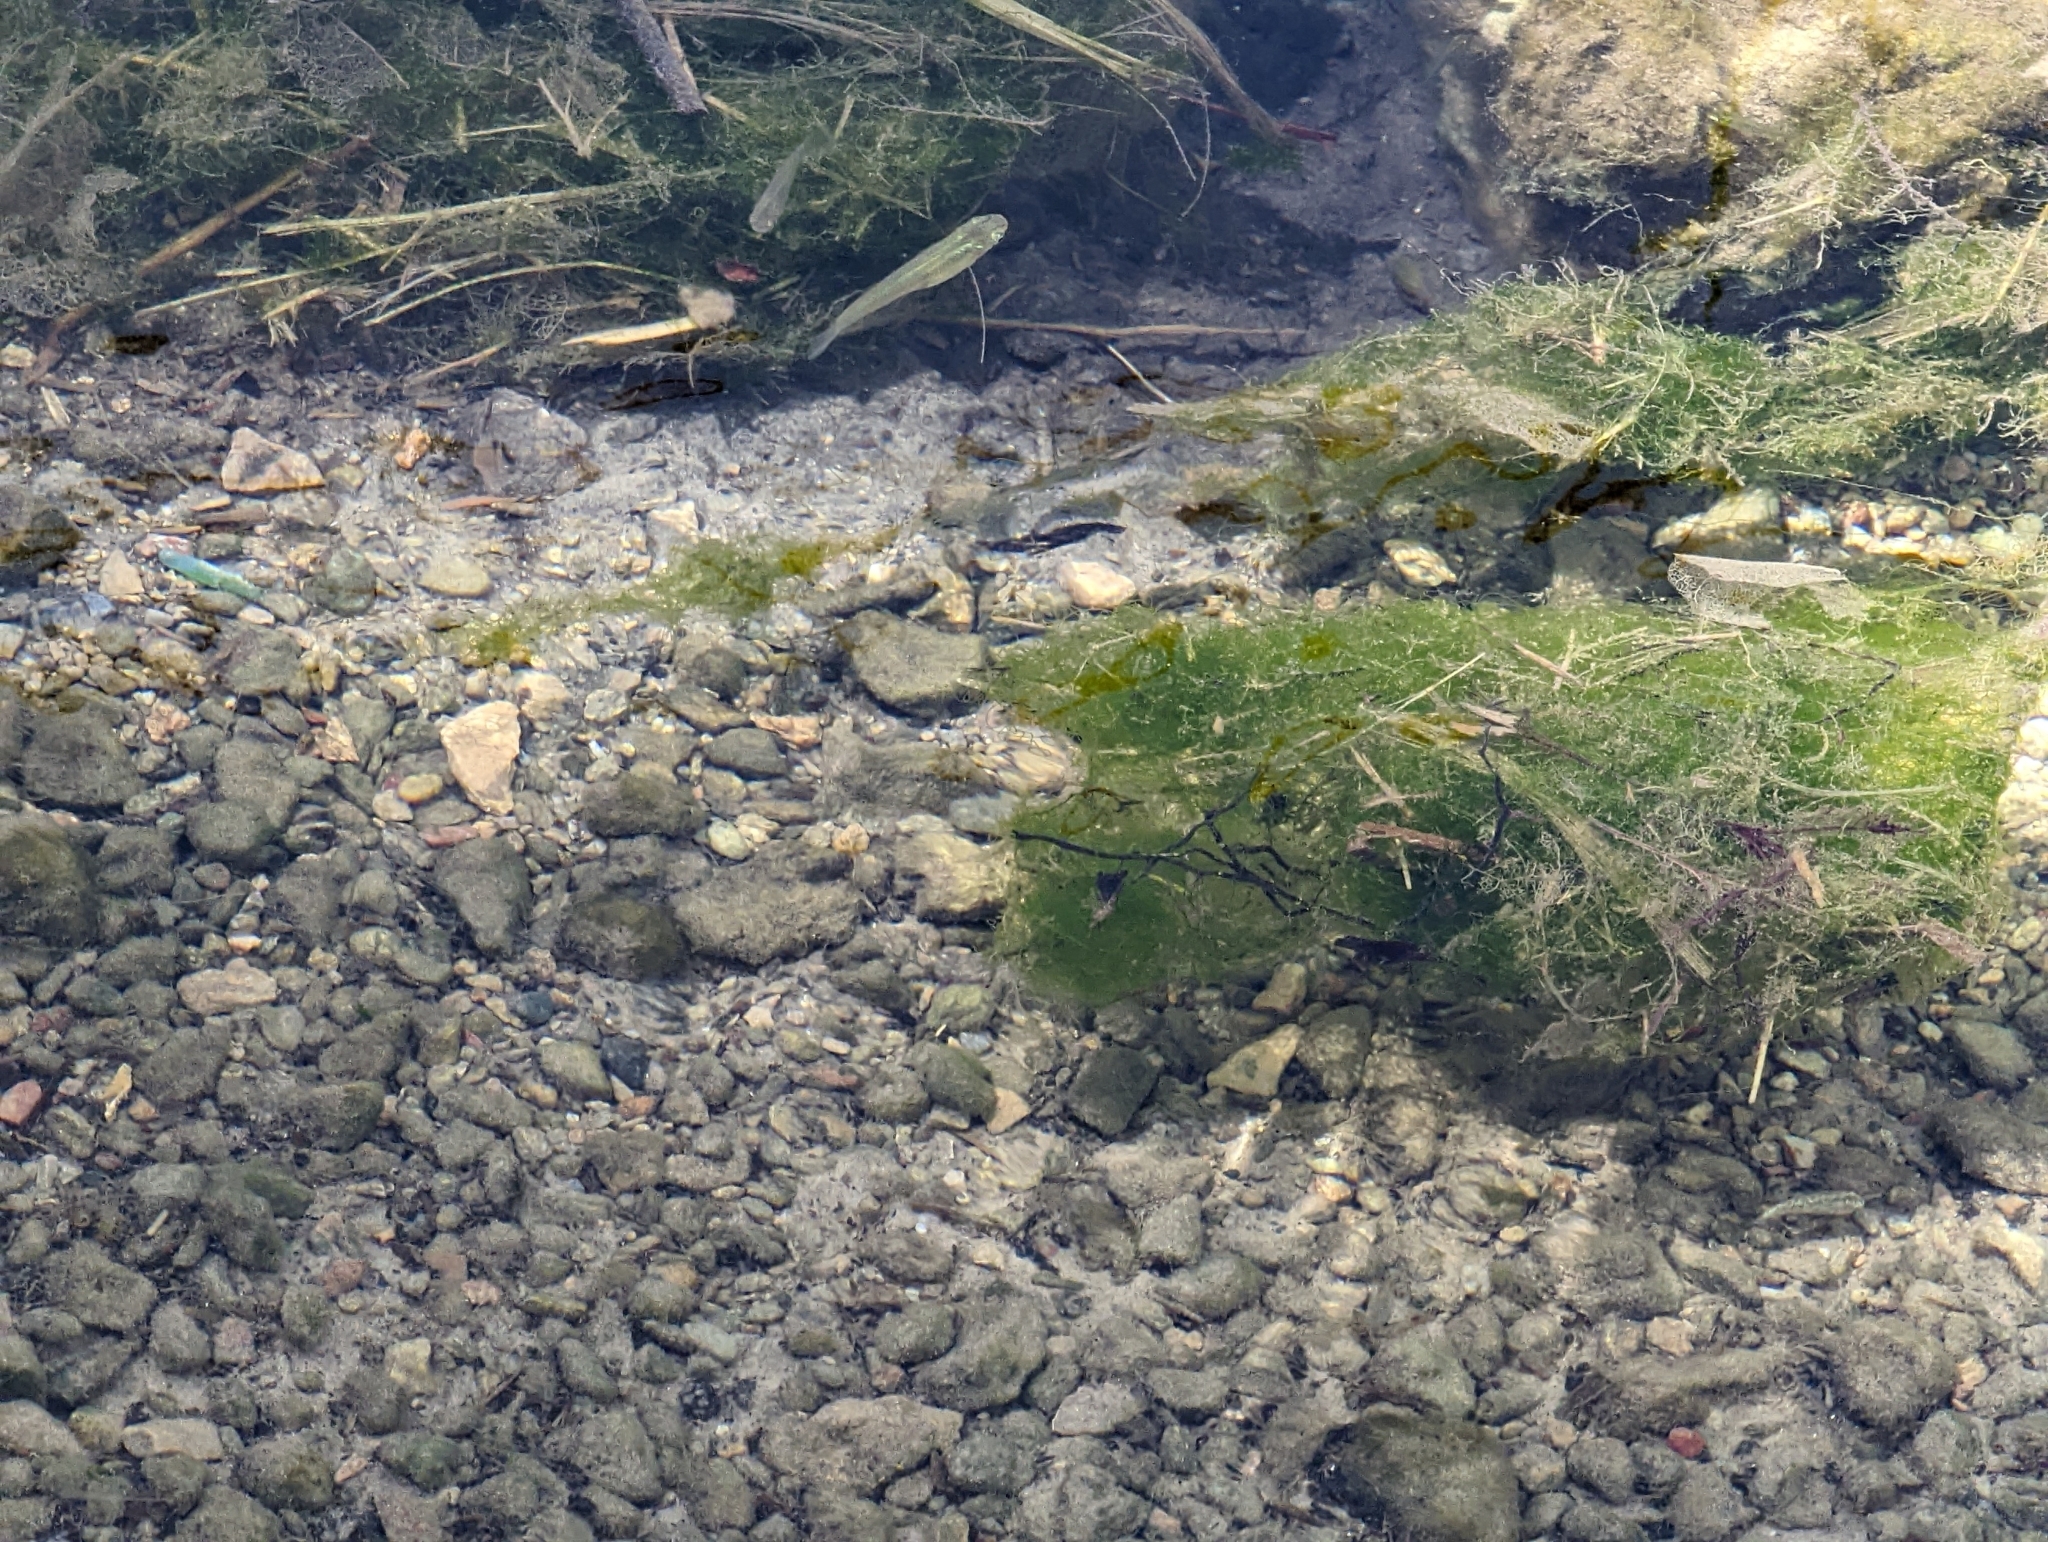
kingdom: Animalia
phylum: Chordata
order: Cyprinodontiformes
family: Poeciliidae
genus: Gambusia
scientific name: Gambusia affinis
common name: Mosquitofish
